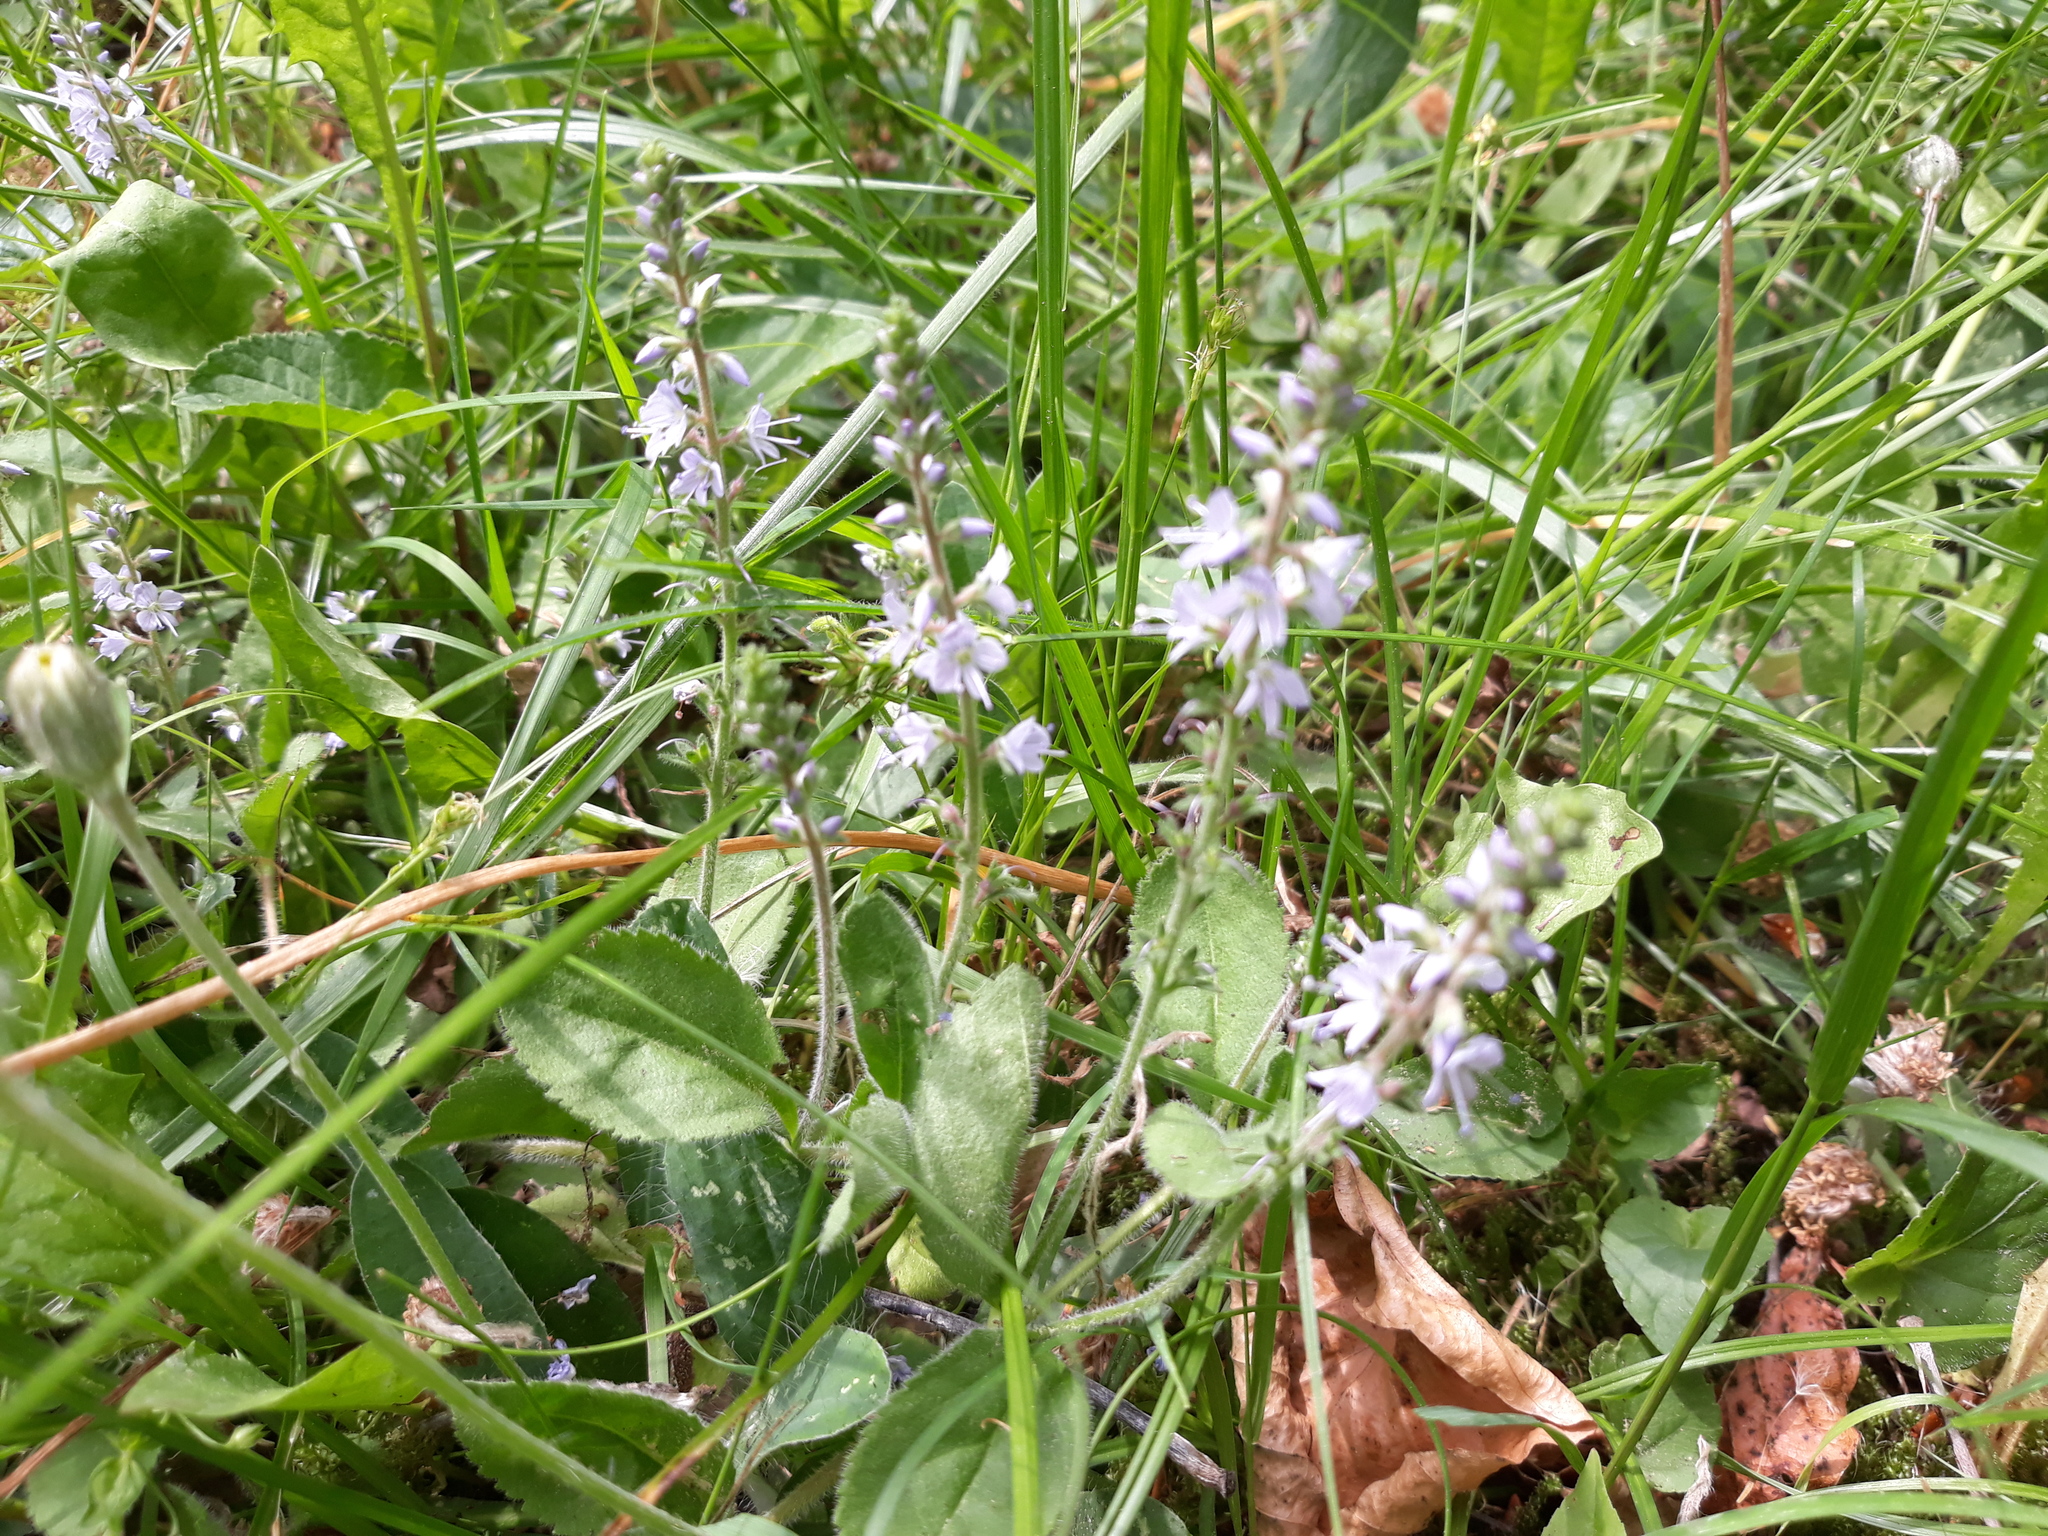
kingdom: Plantae
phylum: Tracheophyta
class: Magnoliopsida
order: Lamiales
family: Plantaginaceae
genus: Veronica
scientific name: Veronica officinalis
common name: Common speedwell
